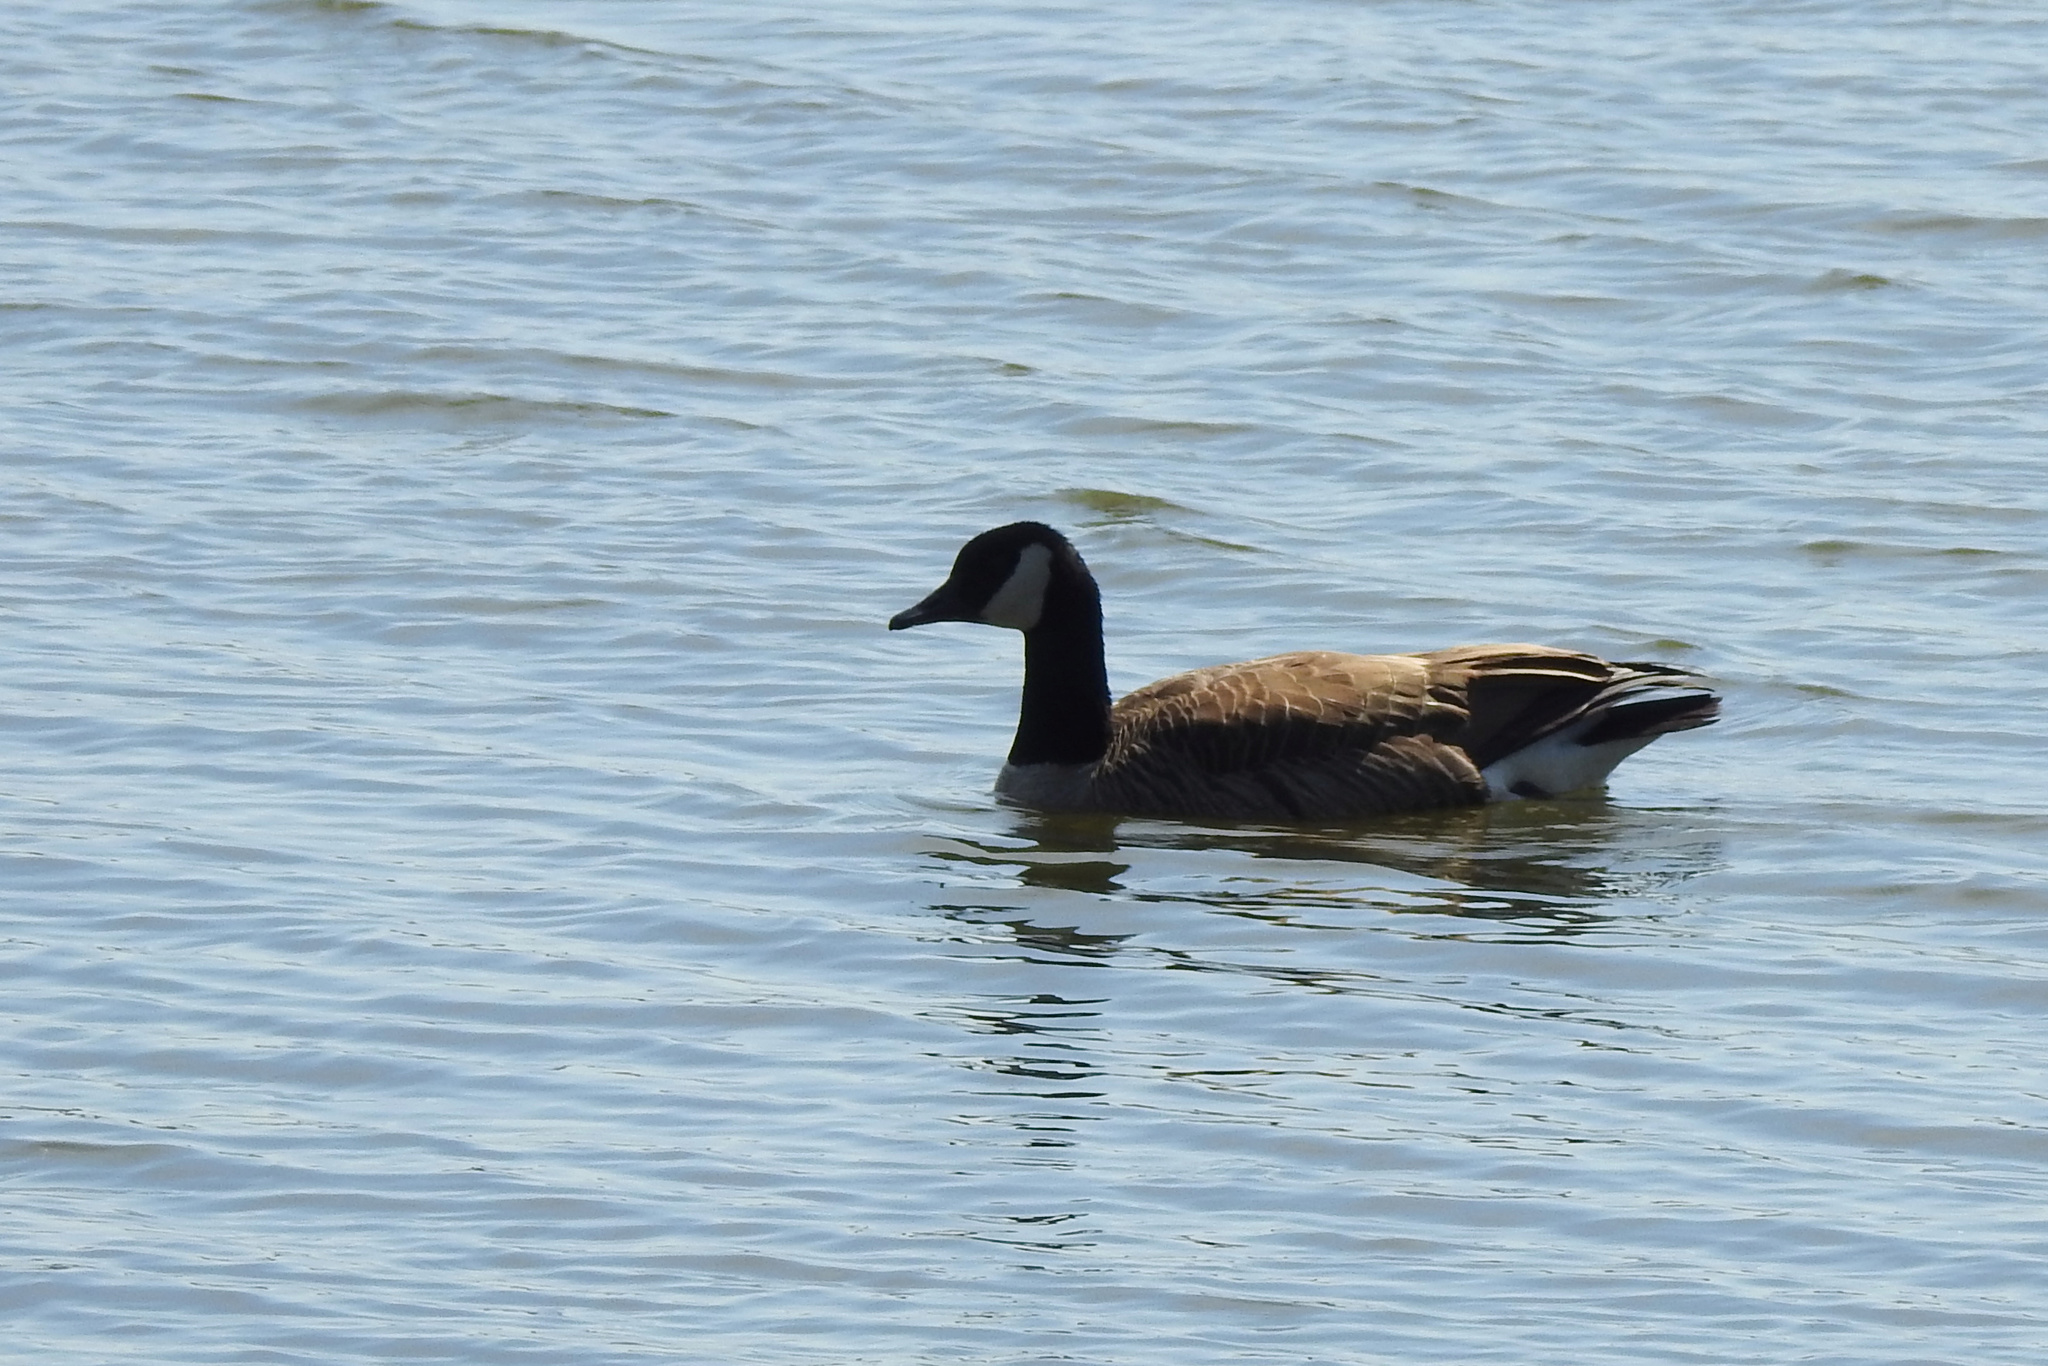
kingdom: Animalia
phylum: Chordata
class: Aves
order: Anseriformes
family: Anatidae
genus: Branta
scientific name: Branta canadensis
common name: Canada goose
